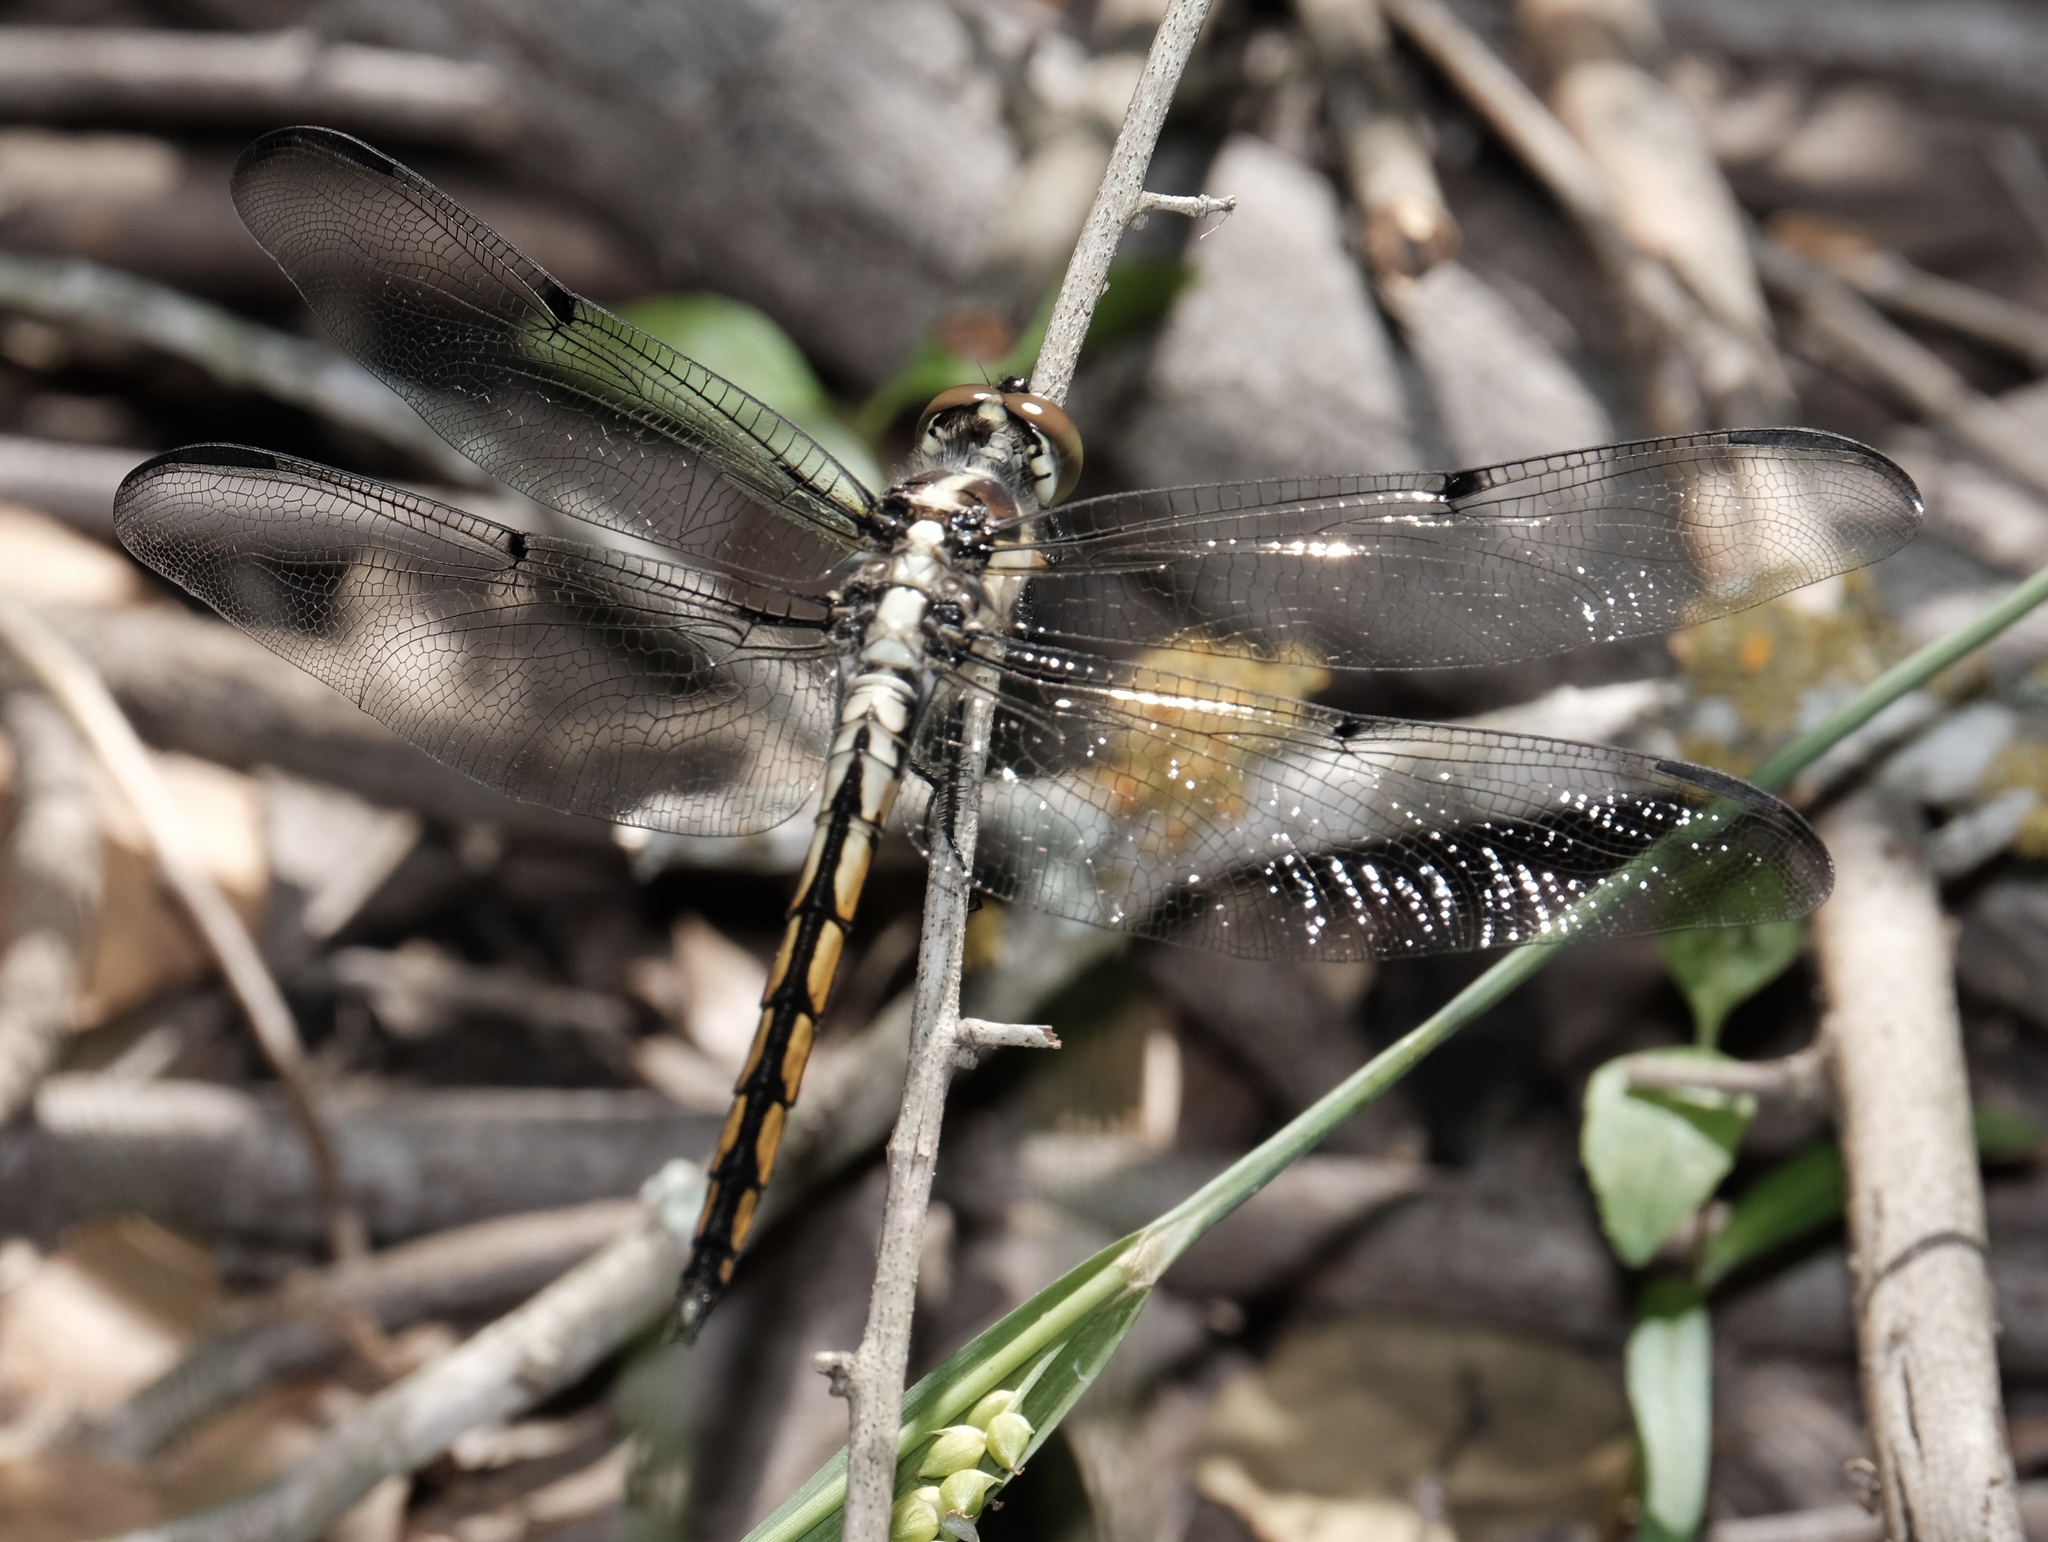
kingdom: Animalia
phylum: Arthropoda
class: Insecta
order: Odonata
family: Libellulidae
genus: Libellula
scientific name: Libellula vibrans
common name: Great blue skimmer
